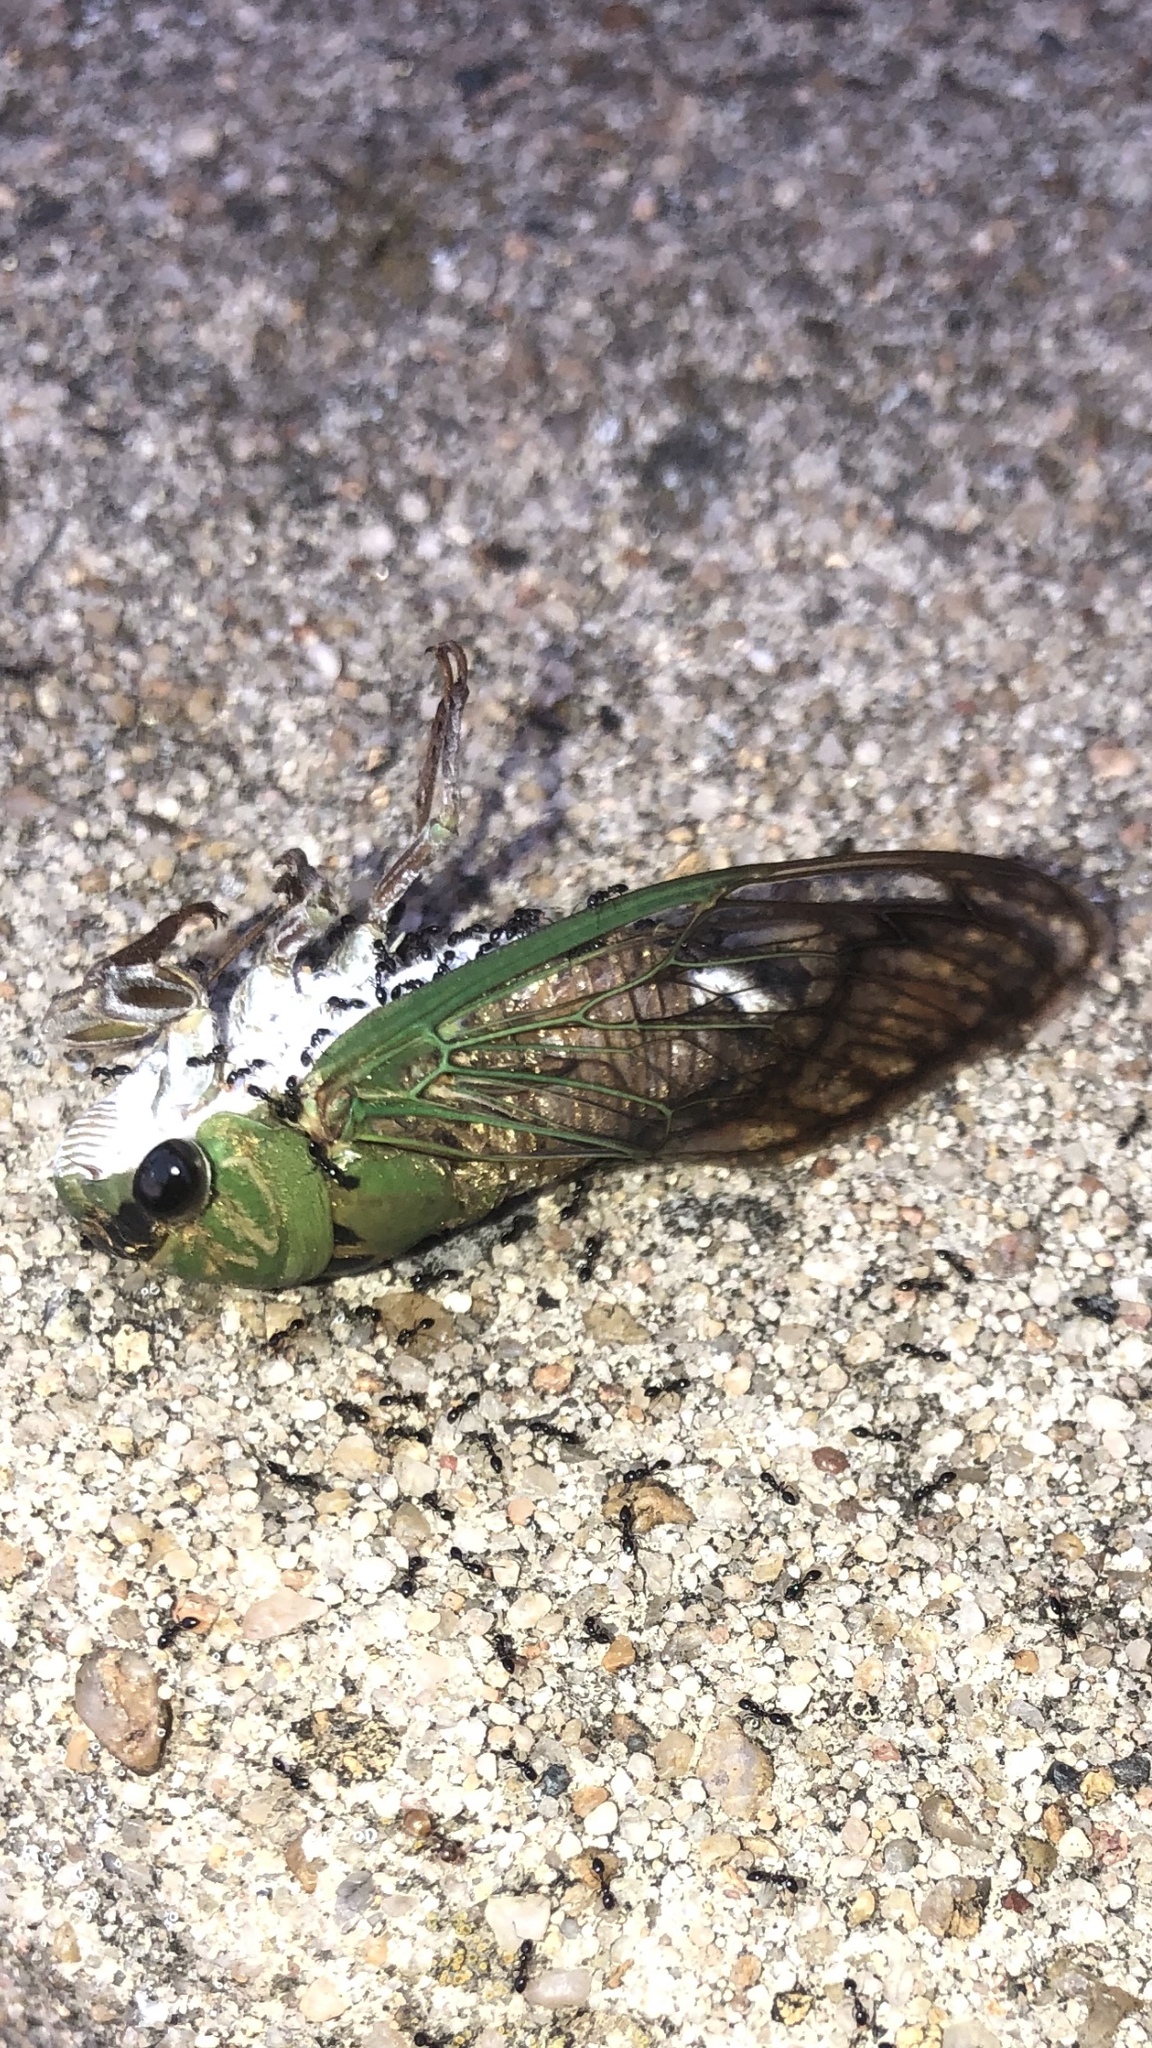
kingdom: Animalia
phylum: Arthropoda
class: Insecta
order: Hemiptera
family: Cicadidae
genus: Neotibicen
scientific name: Neotibicen superbus
